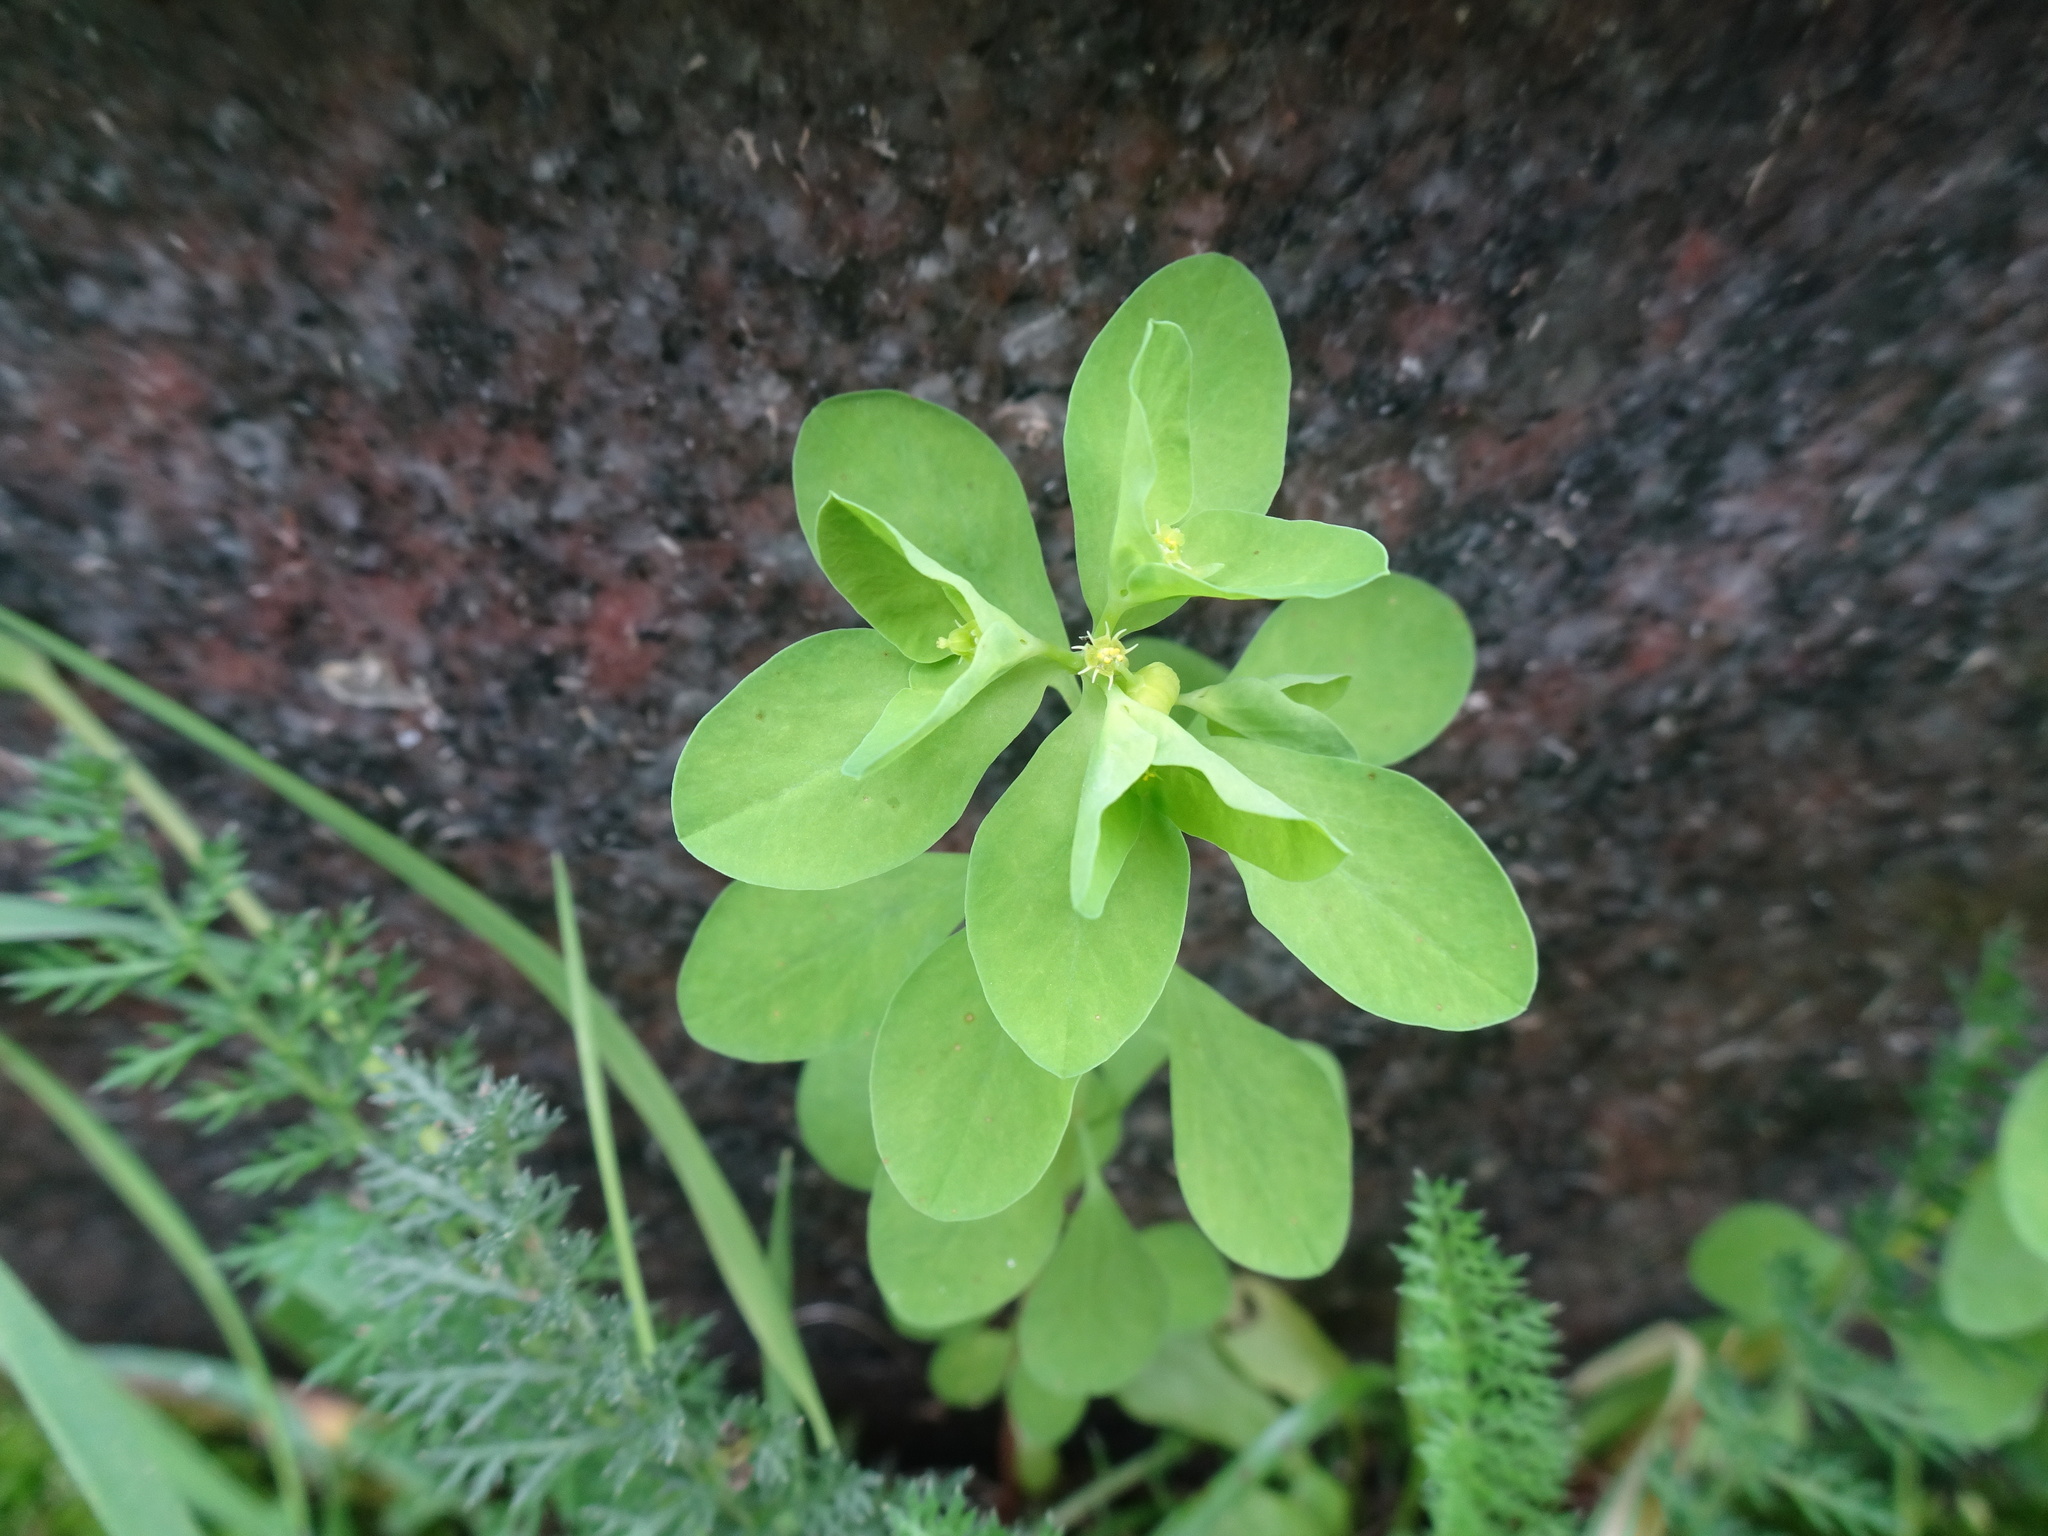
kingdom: Plantae
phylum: Tracheophyta
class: Magnoliopsida
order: Malpighiales
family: Euphorbiaceae
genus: Euphorbia
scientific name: Euphorbia peplus
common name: Petty spurge
